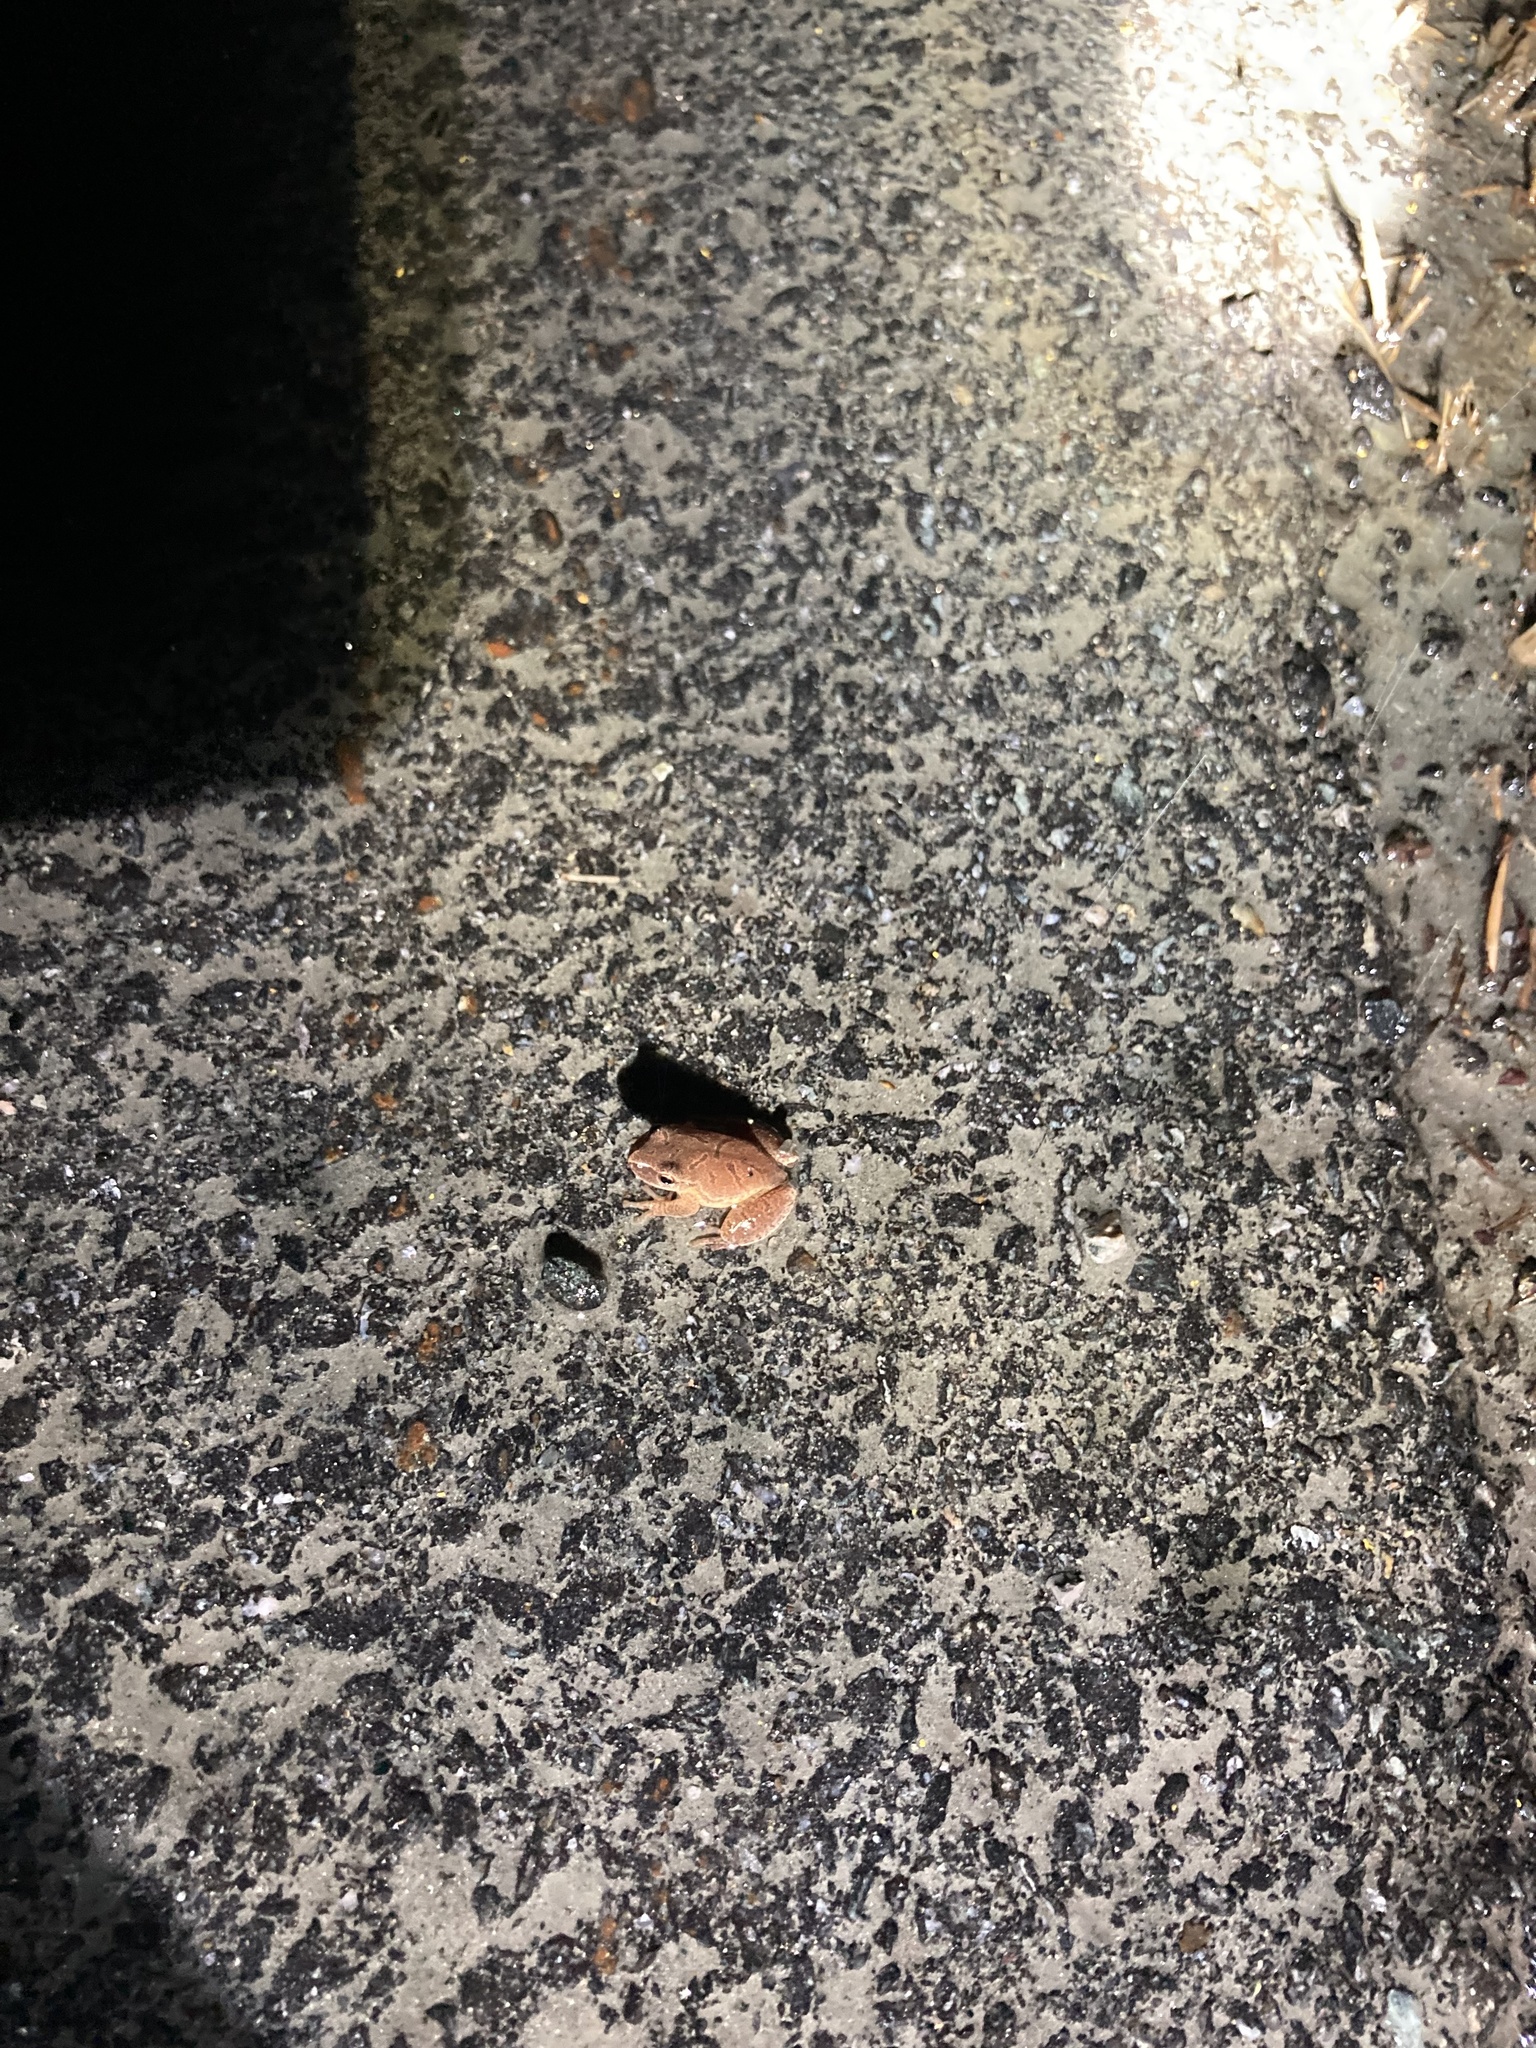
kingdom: Animalia
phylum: Chordata
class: Amphibia
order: Anura
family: Hylidae
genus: Pseudacris
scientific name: Pseudacris crucifer
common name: Spring peeper
